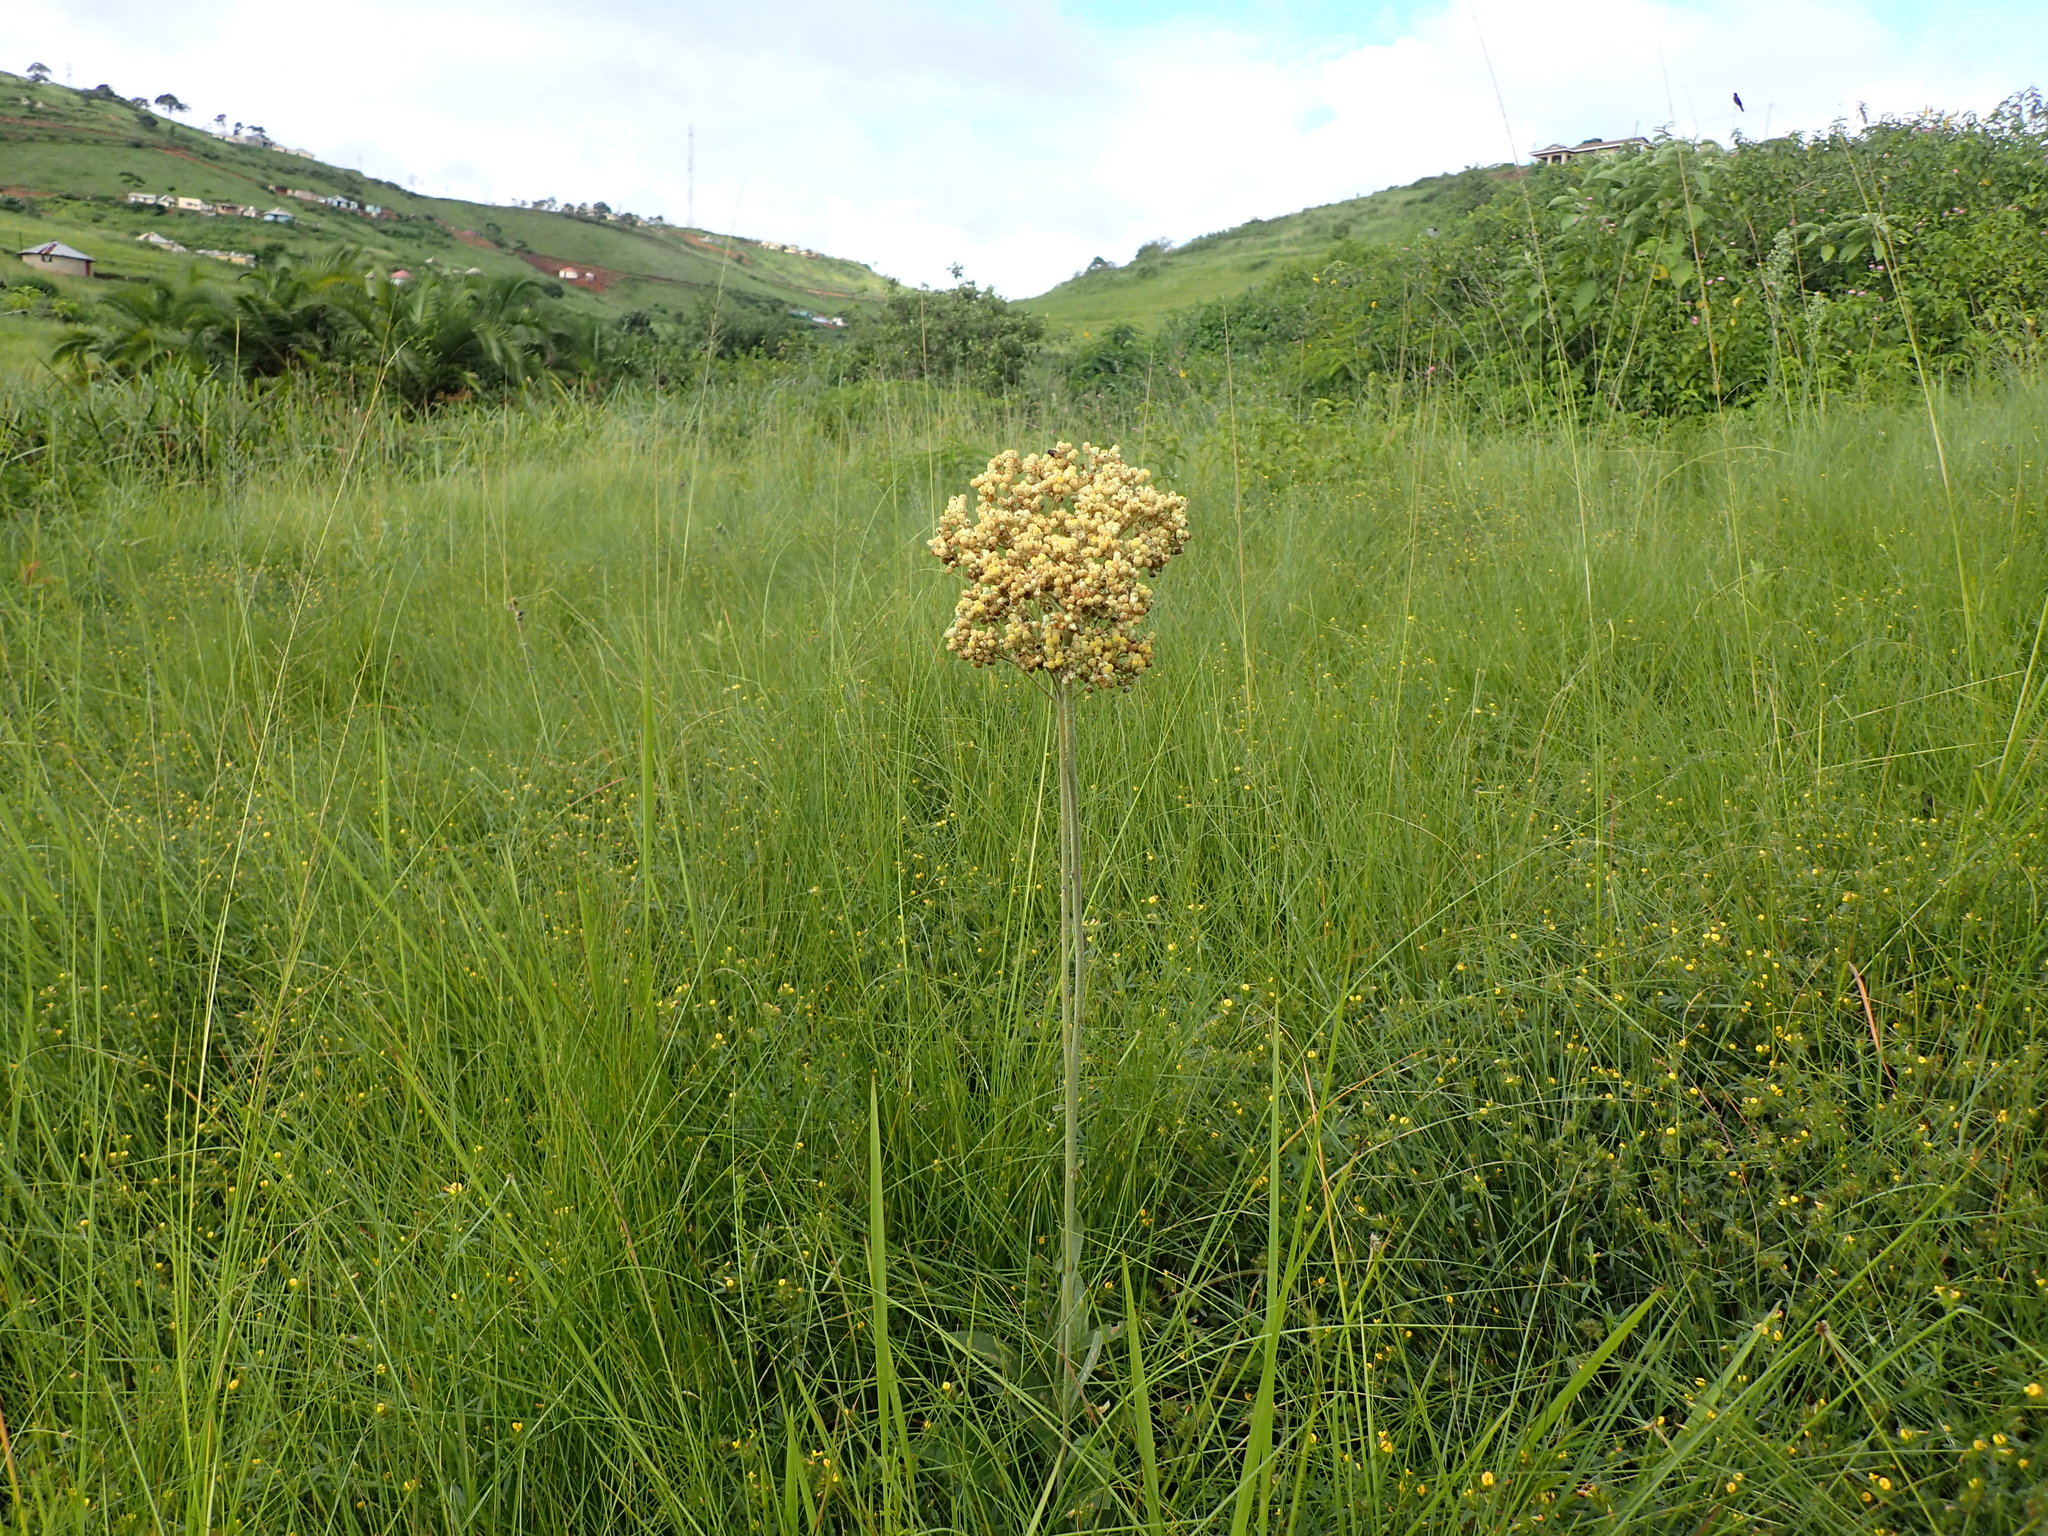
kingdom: Plantae
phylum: Tracheophyta
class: Magnoliopsida
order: Asterales
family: Asteraceae
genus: Helichrysum
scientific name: Helichrysum nudifolium
